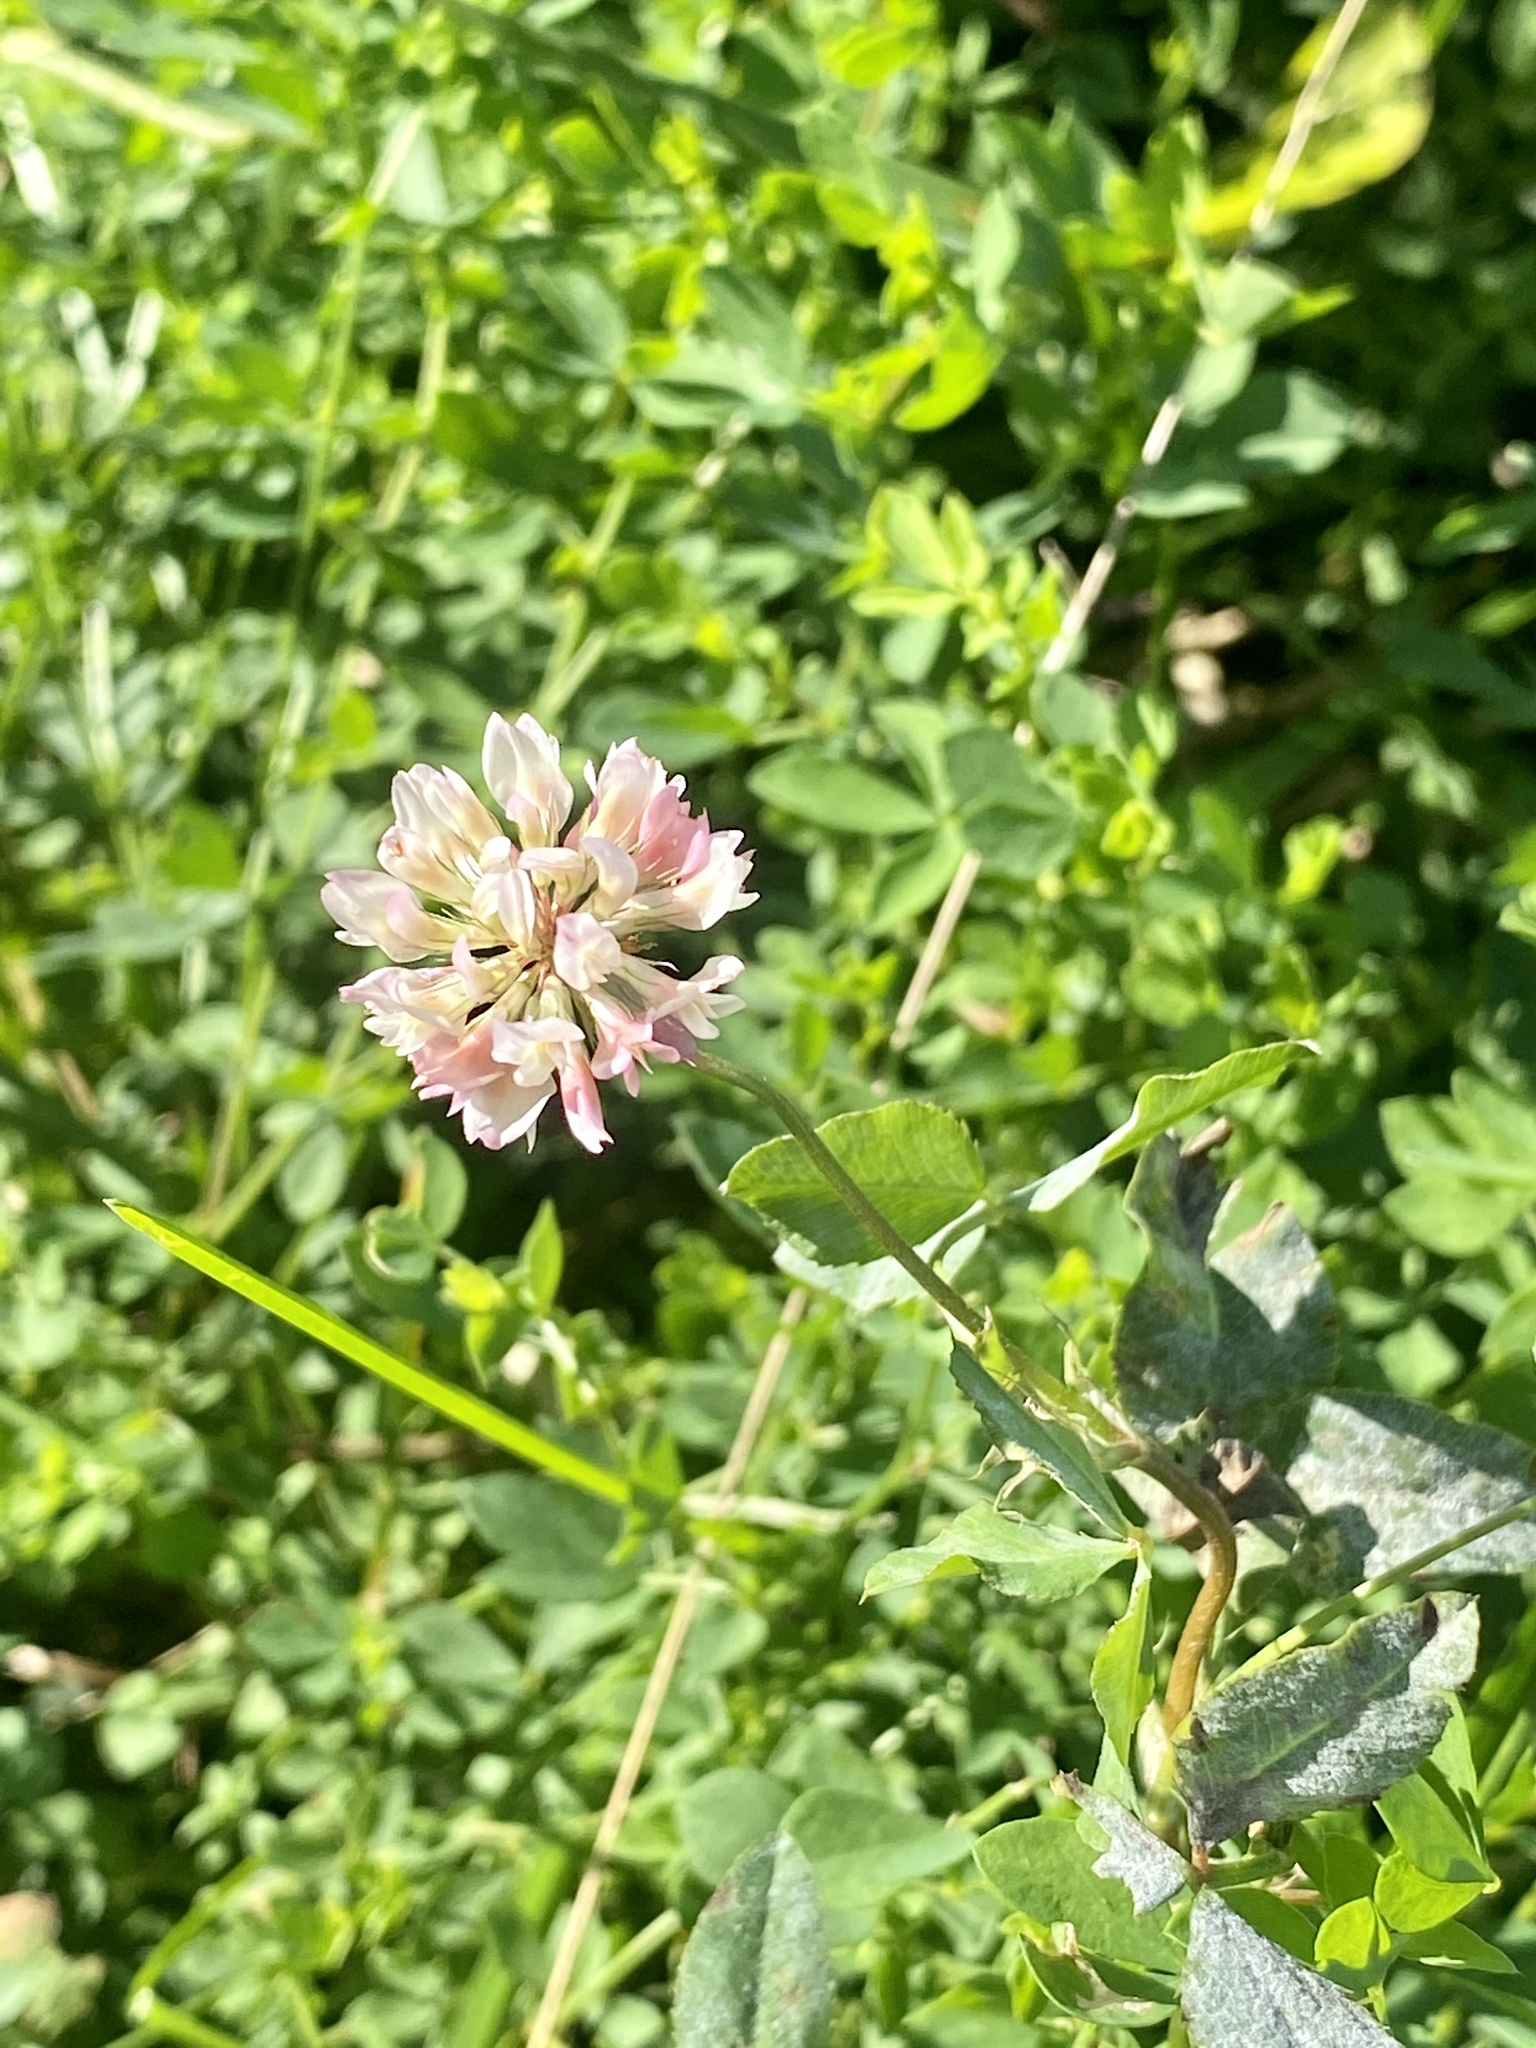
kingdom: Plantae
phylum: Tracheophyta
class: Magnoliopsida
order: Fabales
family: Fabaceae
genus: Trifolium
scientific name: Trifolium hybridum
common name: Alsike clover
